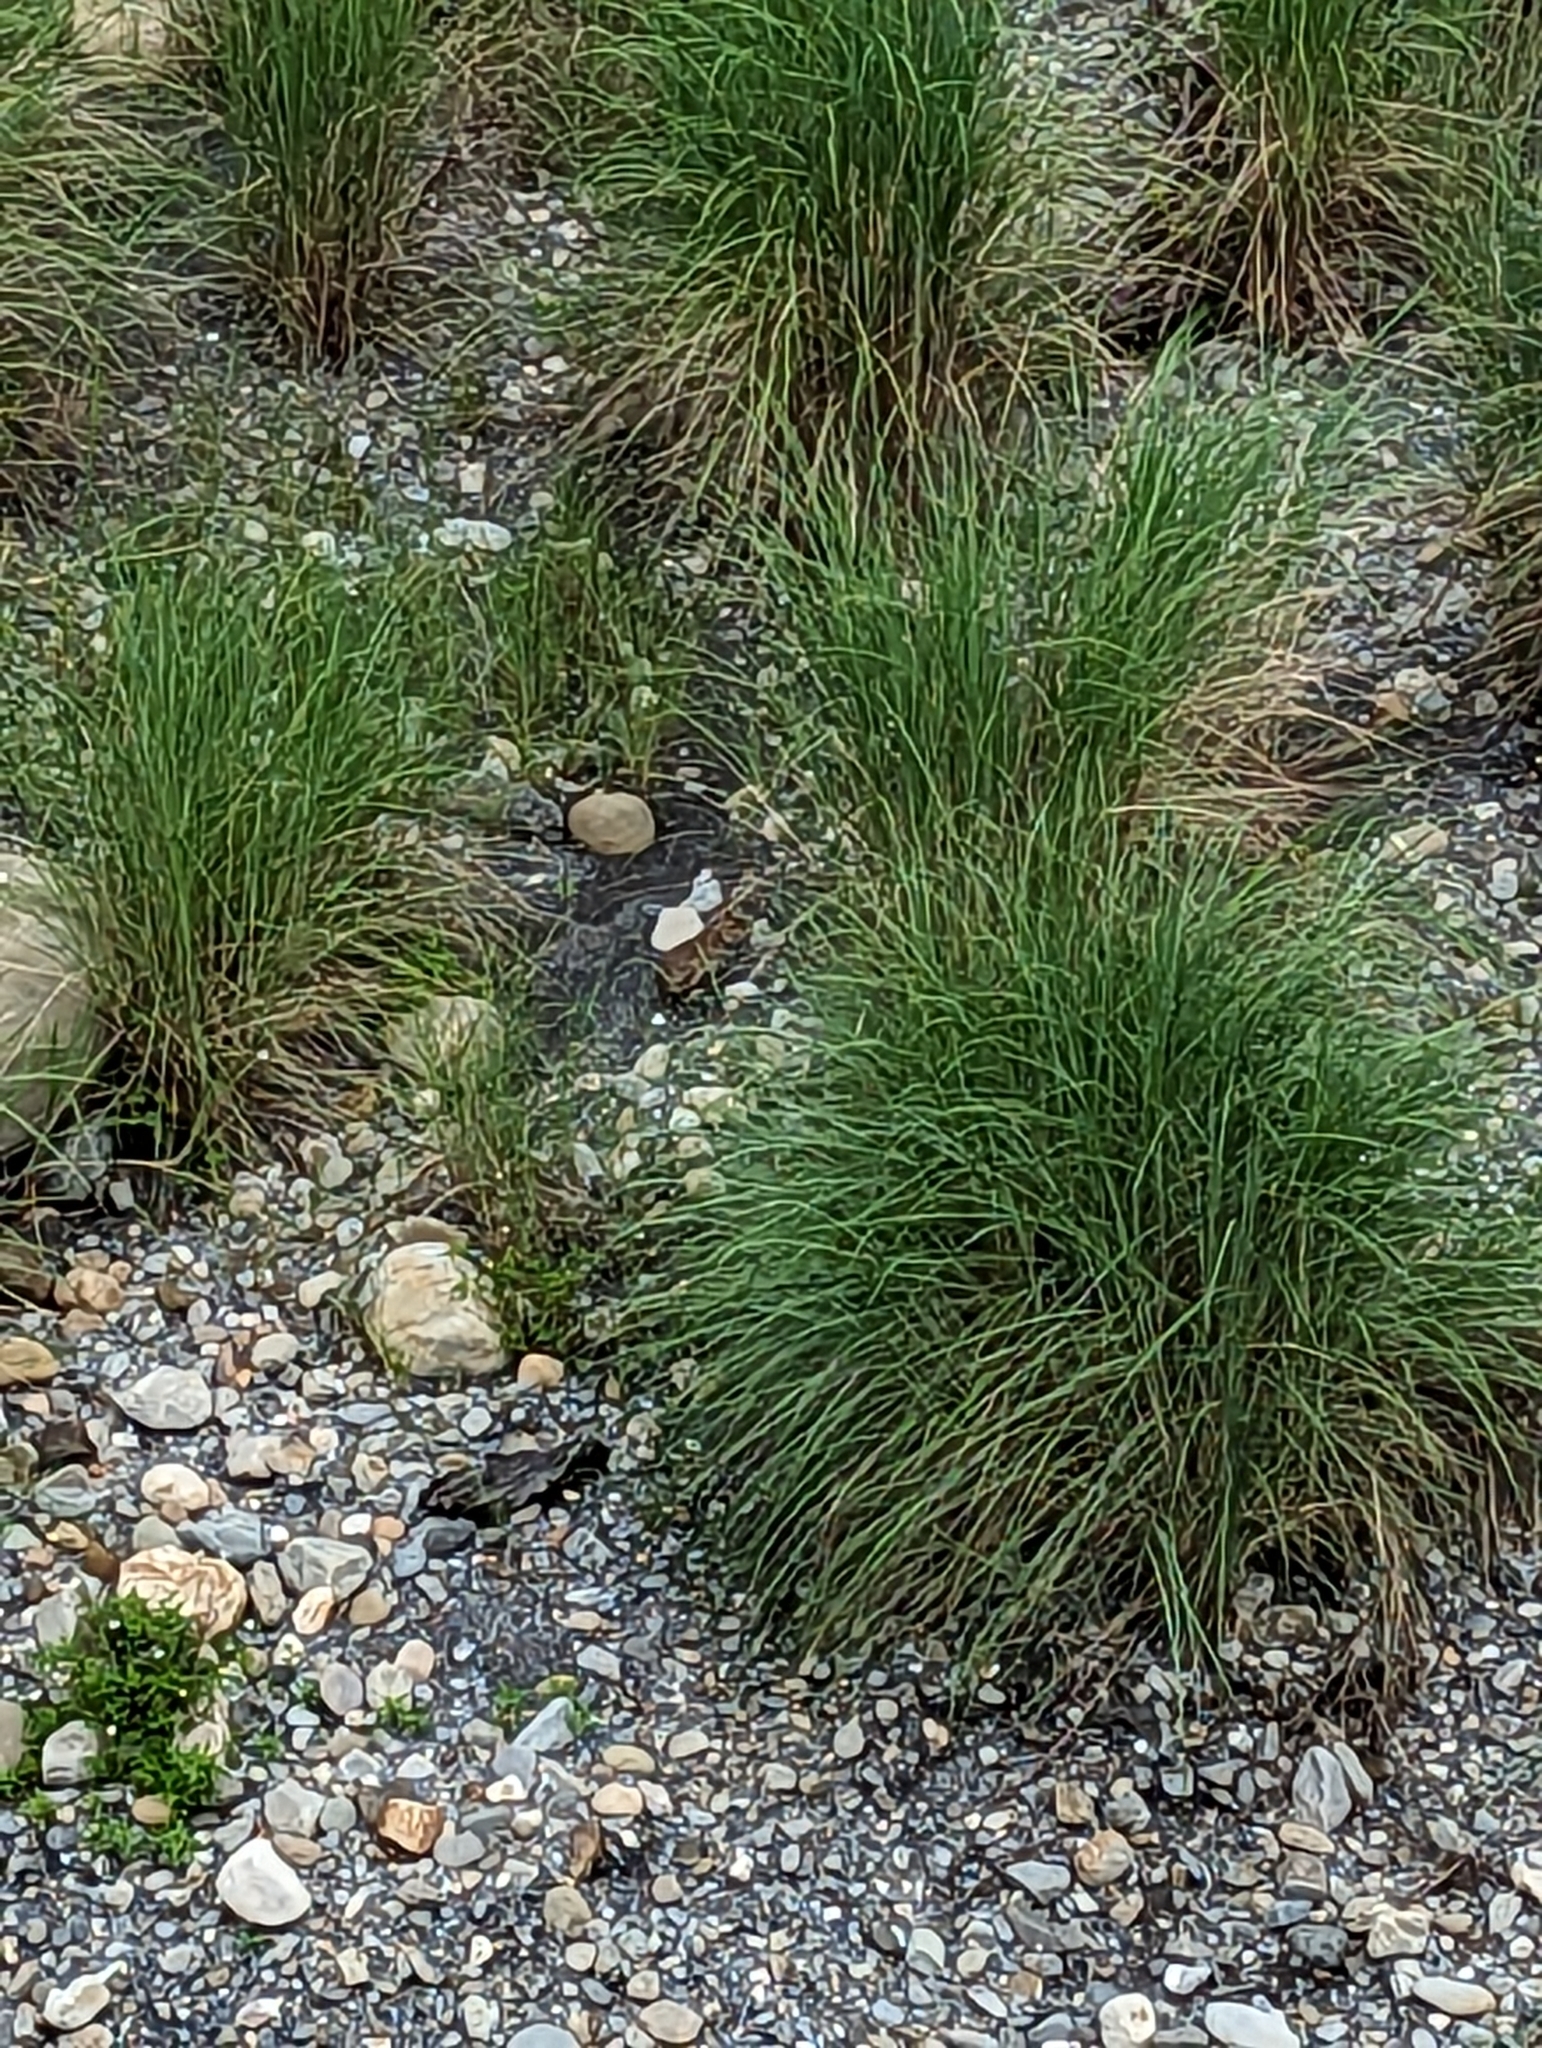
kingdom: Animalia
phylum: Chordata
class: Mammalia
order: Lagomorpha
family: Leporidae
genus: Lepus
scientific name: Lepus sinensis
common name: Chinese hare
